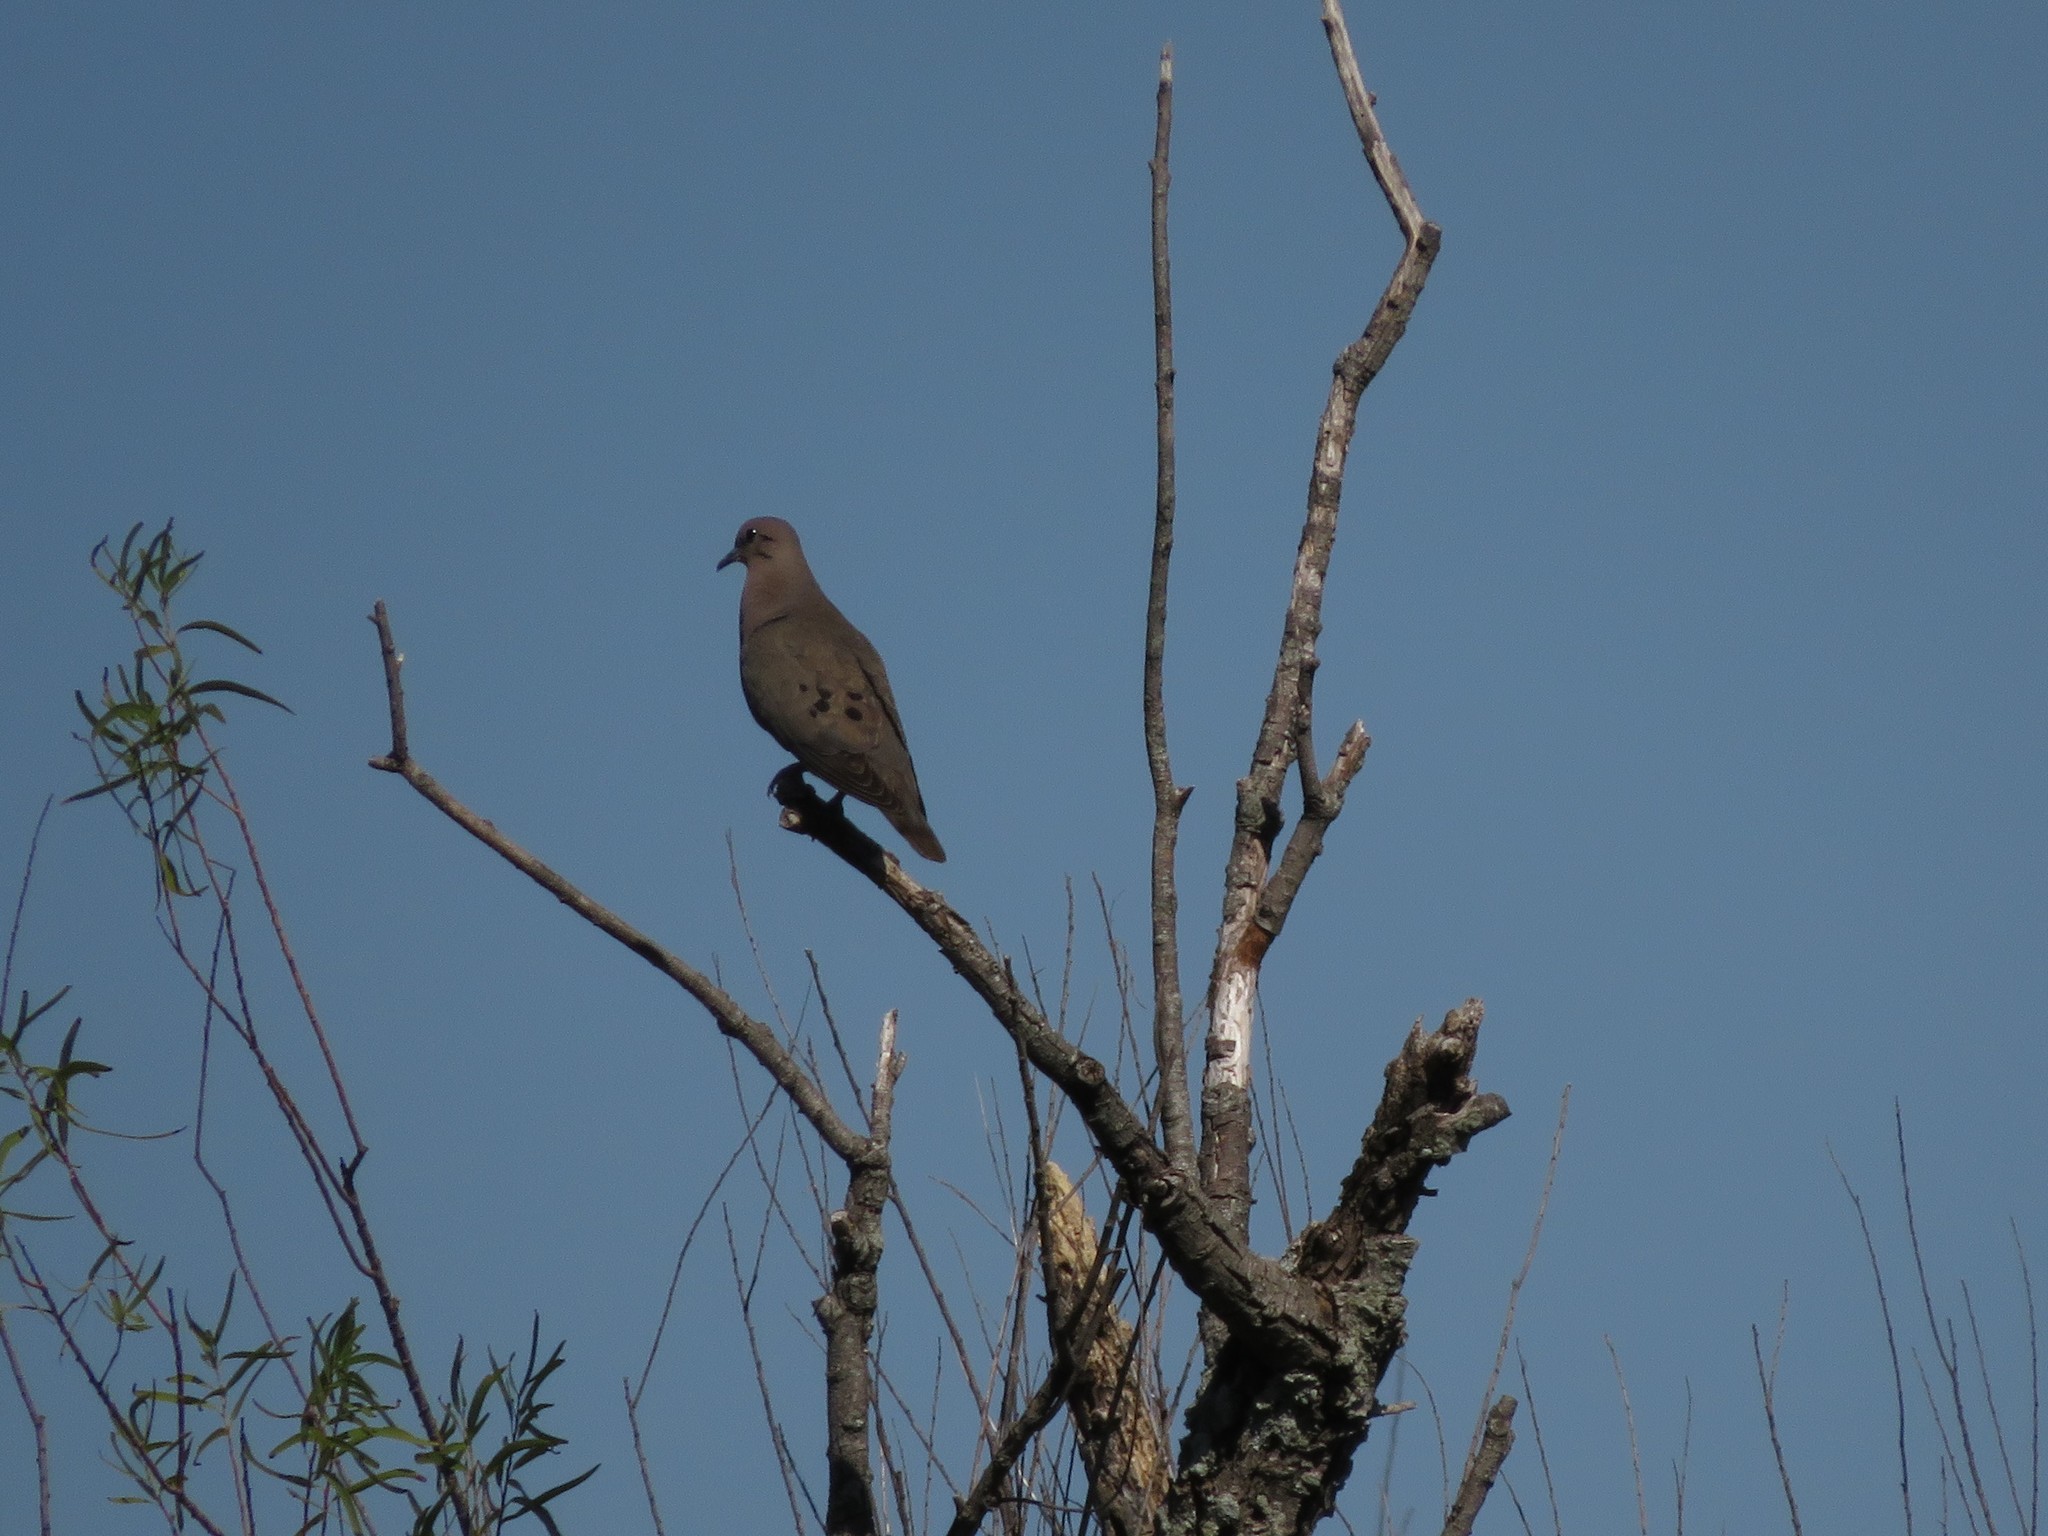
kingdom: Animalia
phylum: Chordata
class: Aves
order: Columbiformes
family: Columbidae
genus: Zenaida
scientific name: Zenaida auriculata
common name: Eared dove
